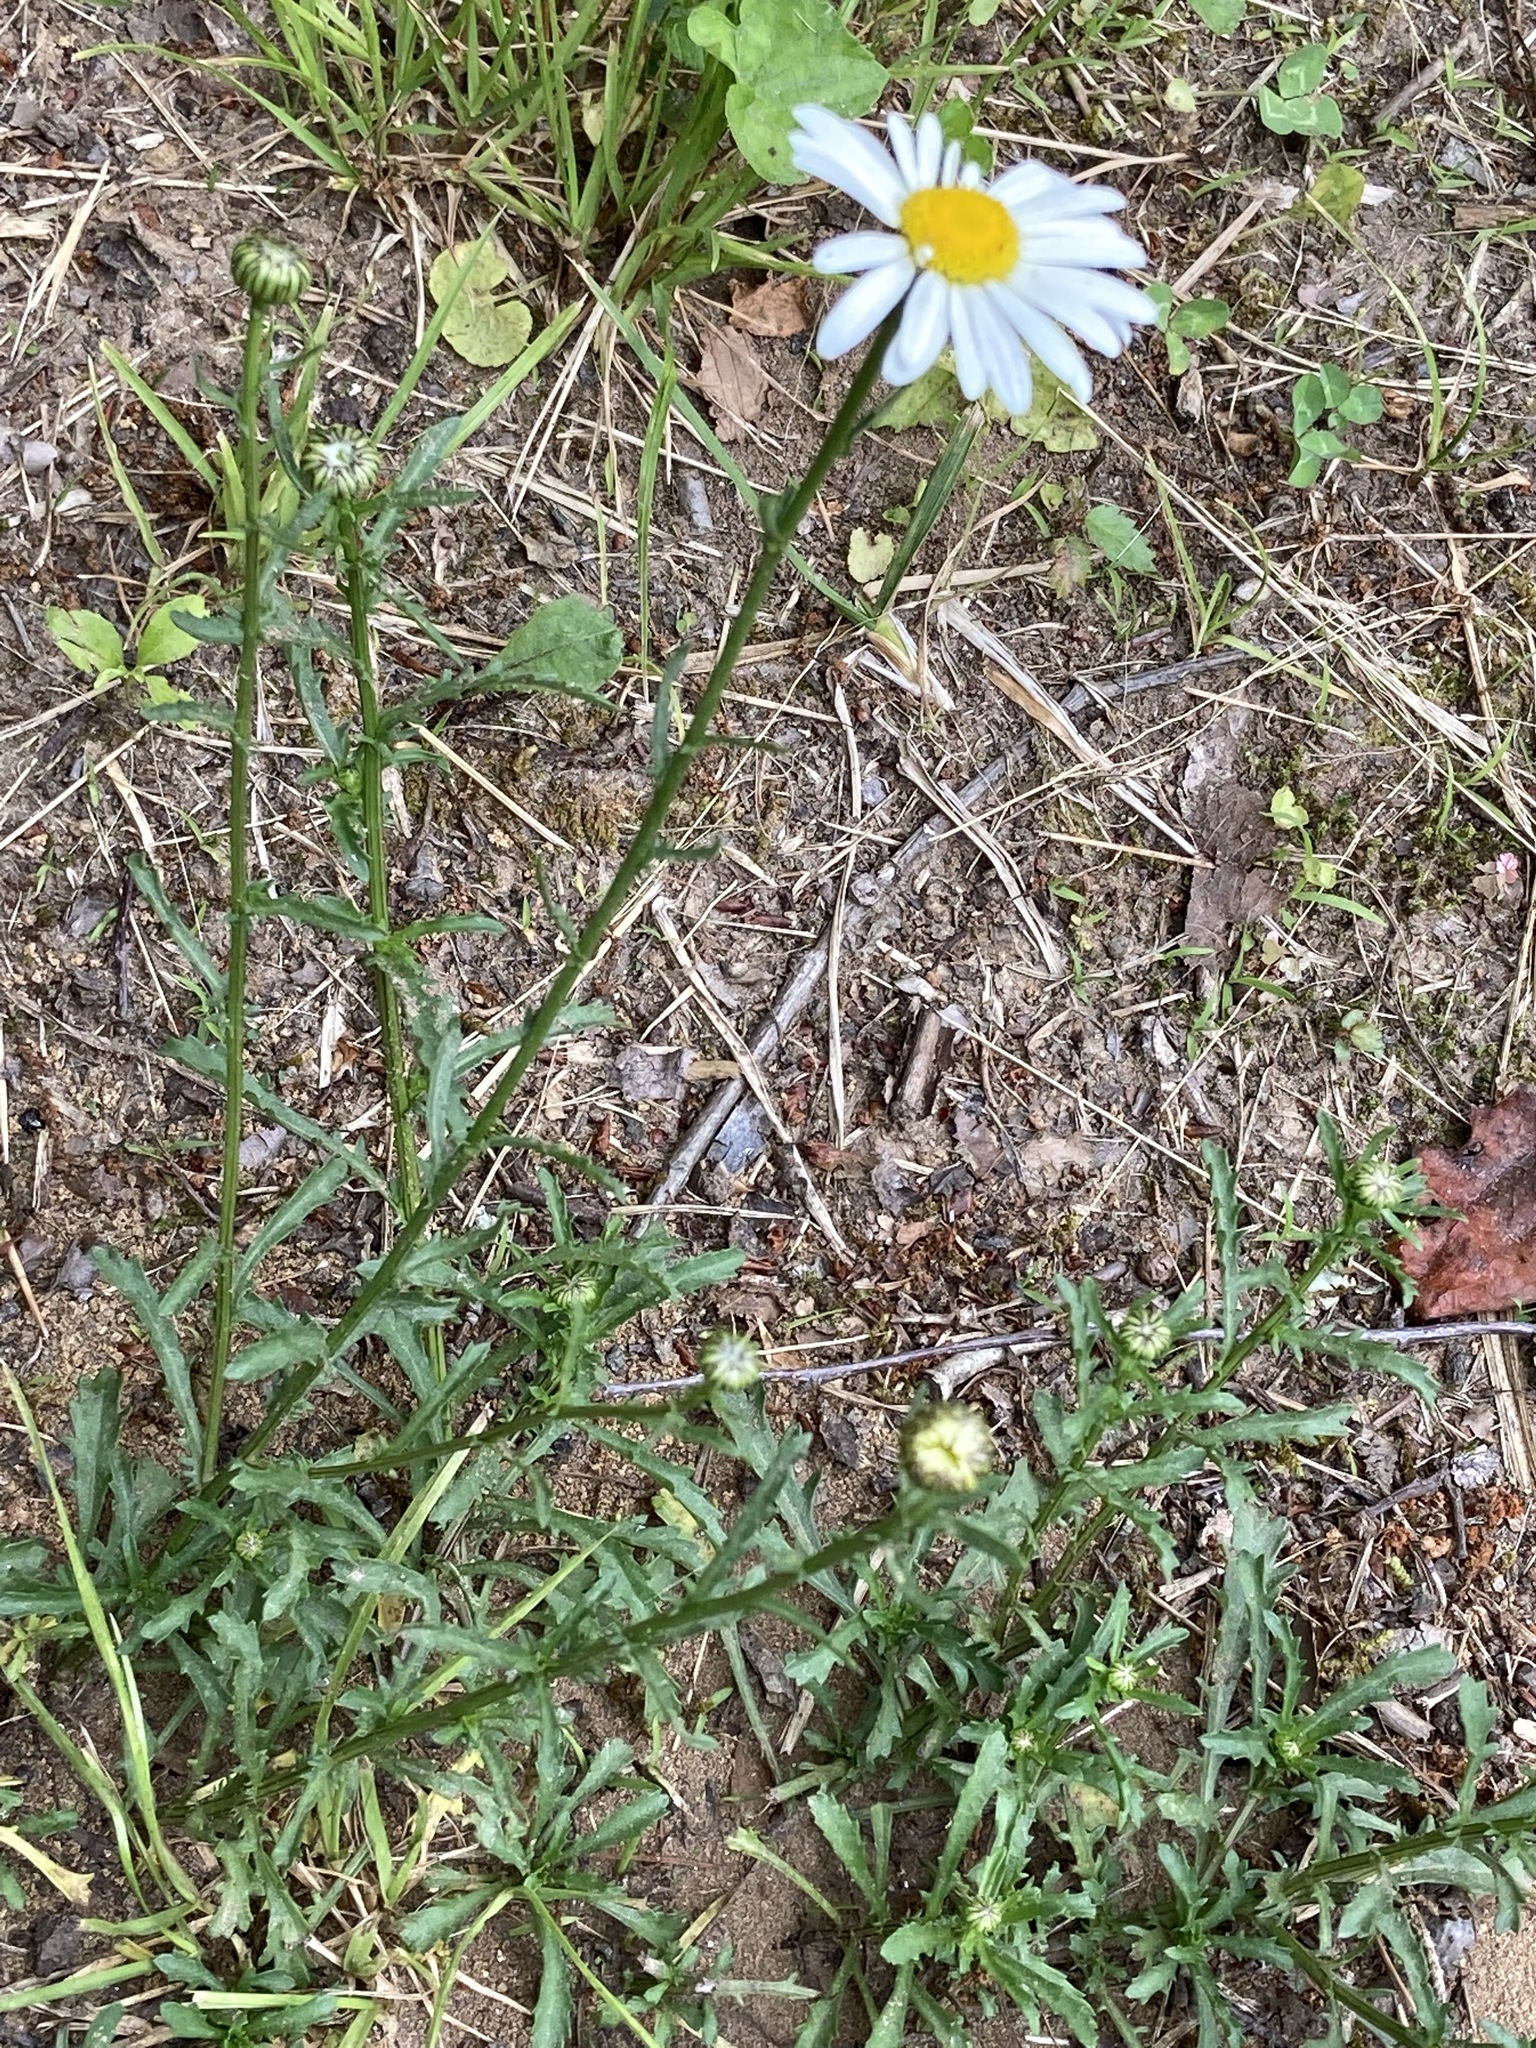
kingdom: Plantae
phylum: Tracheophyta
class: Magnoliopsida
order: Asterales
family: Asteraceae
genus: Leucanthemum
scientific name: Leucanthemum vulgare
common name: Oxeye daisy
